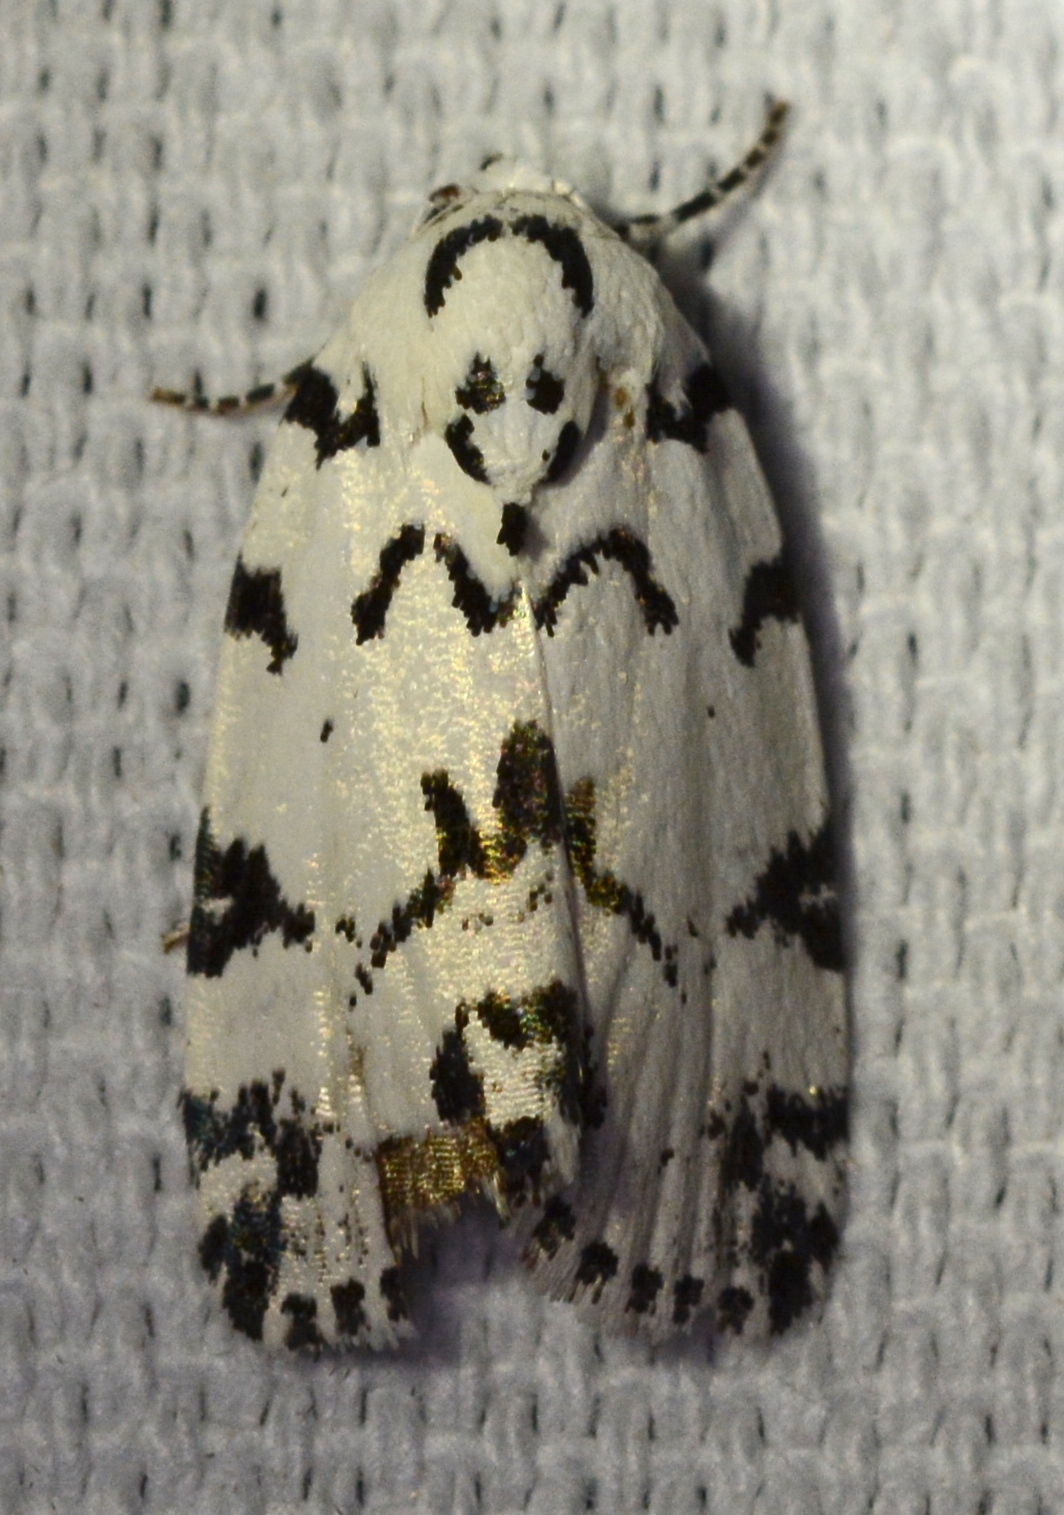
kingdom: Animalia
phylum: Arthropoda
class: Insecta
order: Lepidoptera
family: Noctuidae
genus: Polygrammate
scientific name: Polygrammate hebraeicum
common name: Hebrew moth
